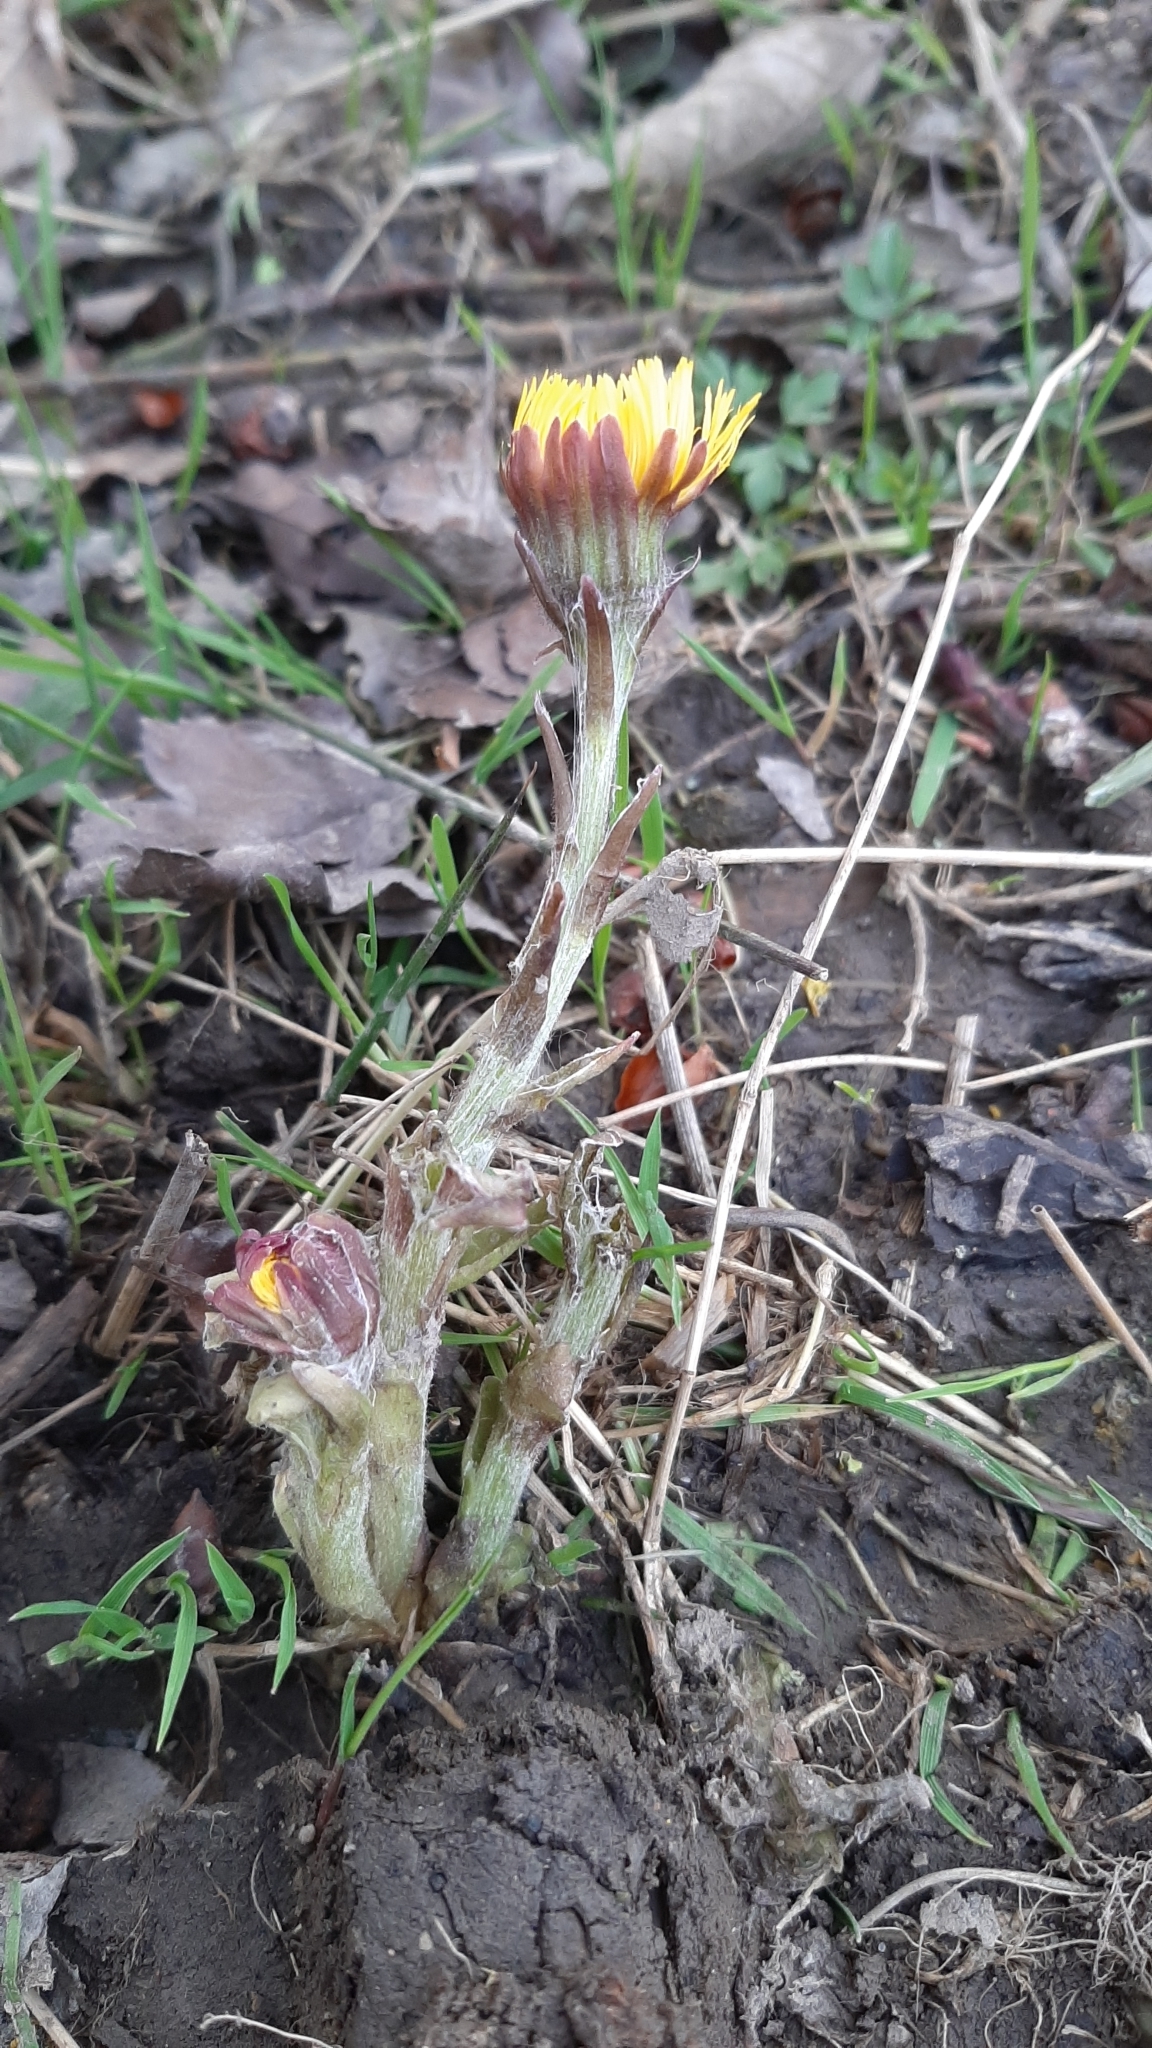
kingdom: Plantae
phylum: Tracheophyta
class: Magnoliopsida
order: Asterales
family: Asteraceae
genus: Tussilago
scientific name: Tussilago farfara
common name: Coltsfoot
